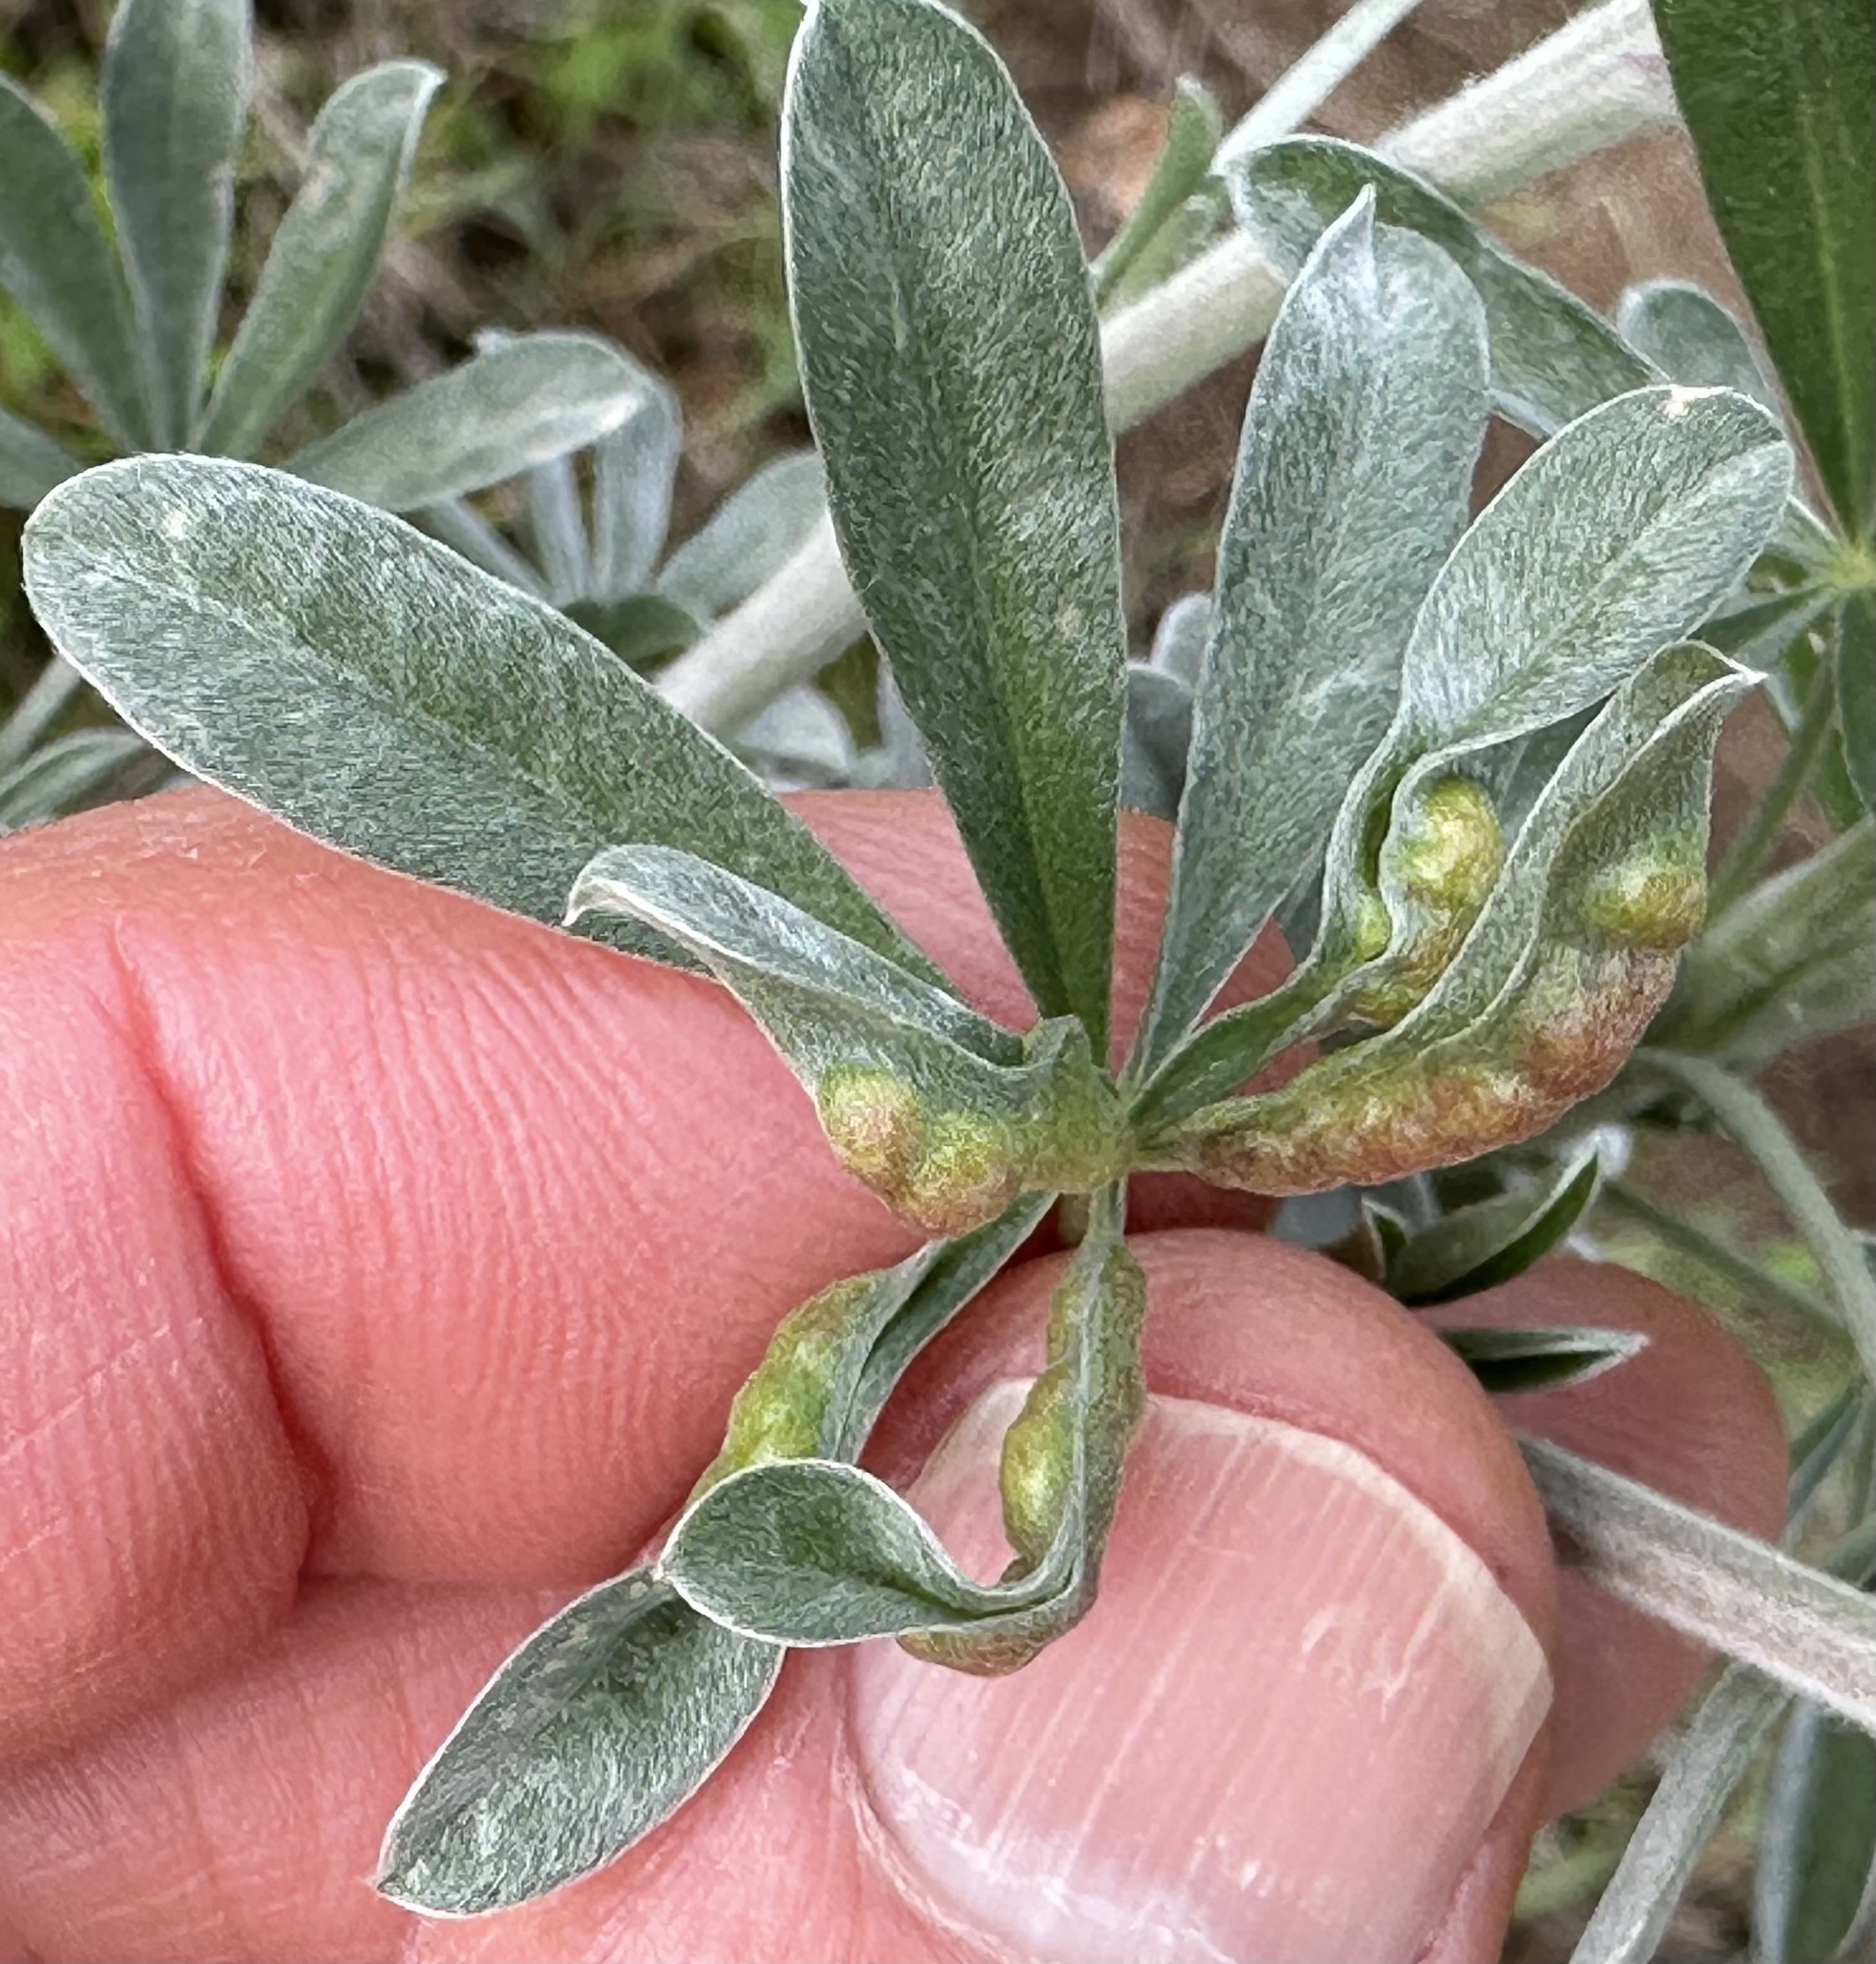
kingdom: Animalia
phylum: Arthropoda
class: Insecta
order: Diptera
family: Cecidomyiidae
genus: Dasineura
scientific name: Dasineura lupinorum
